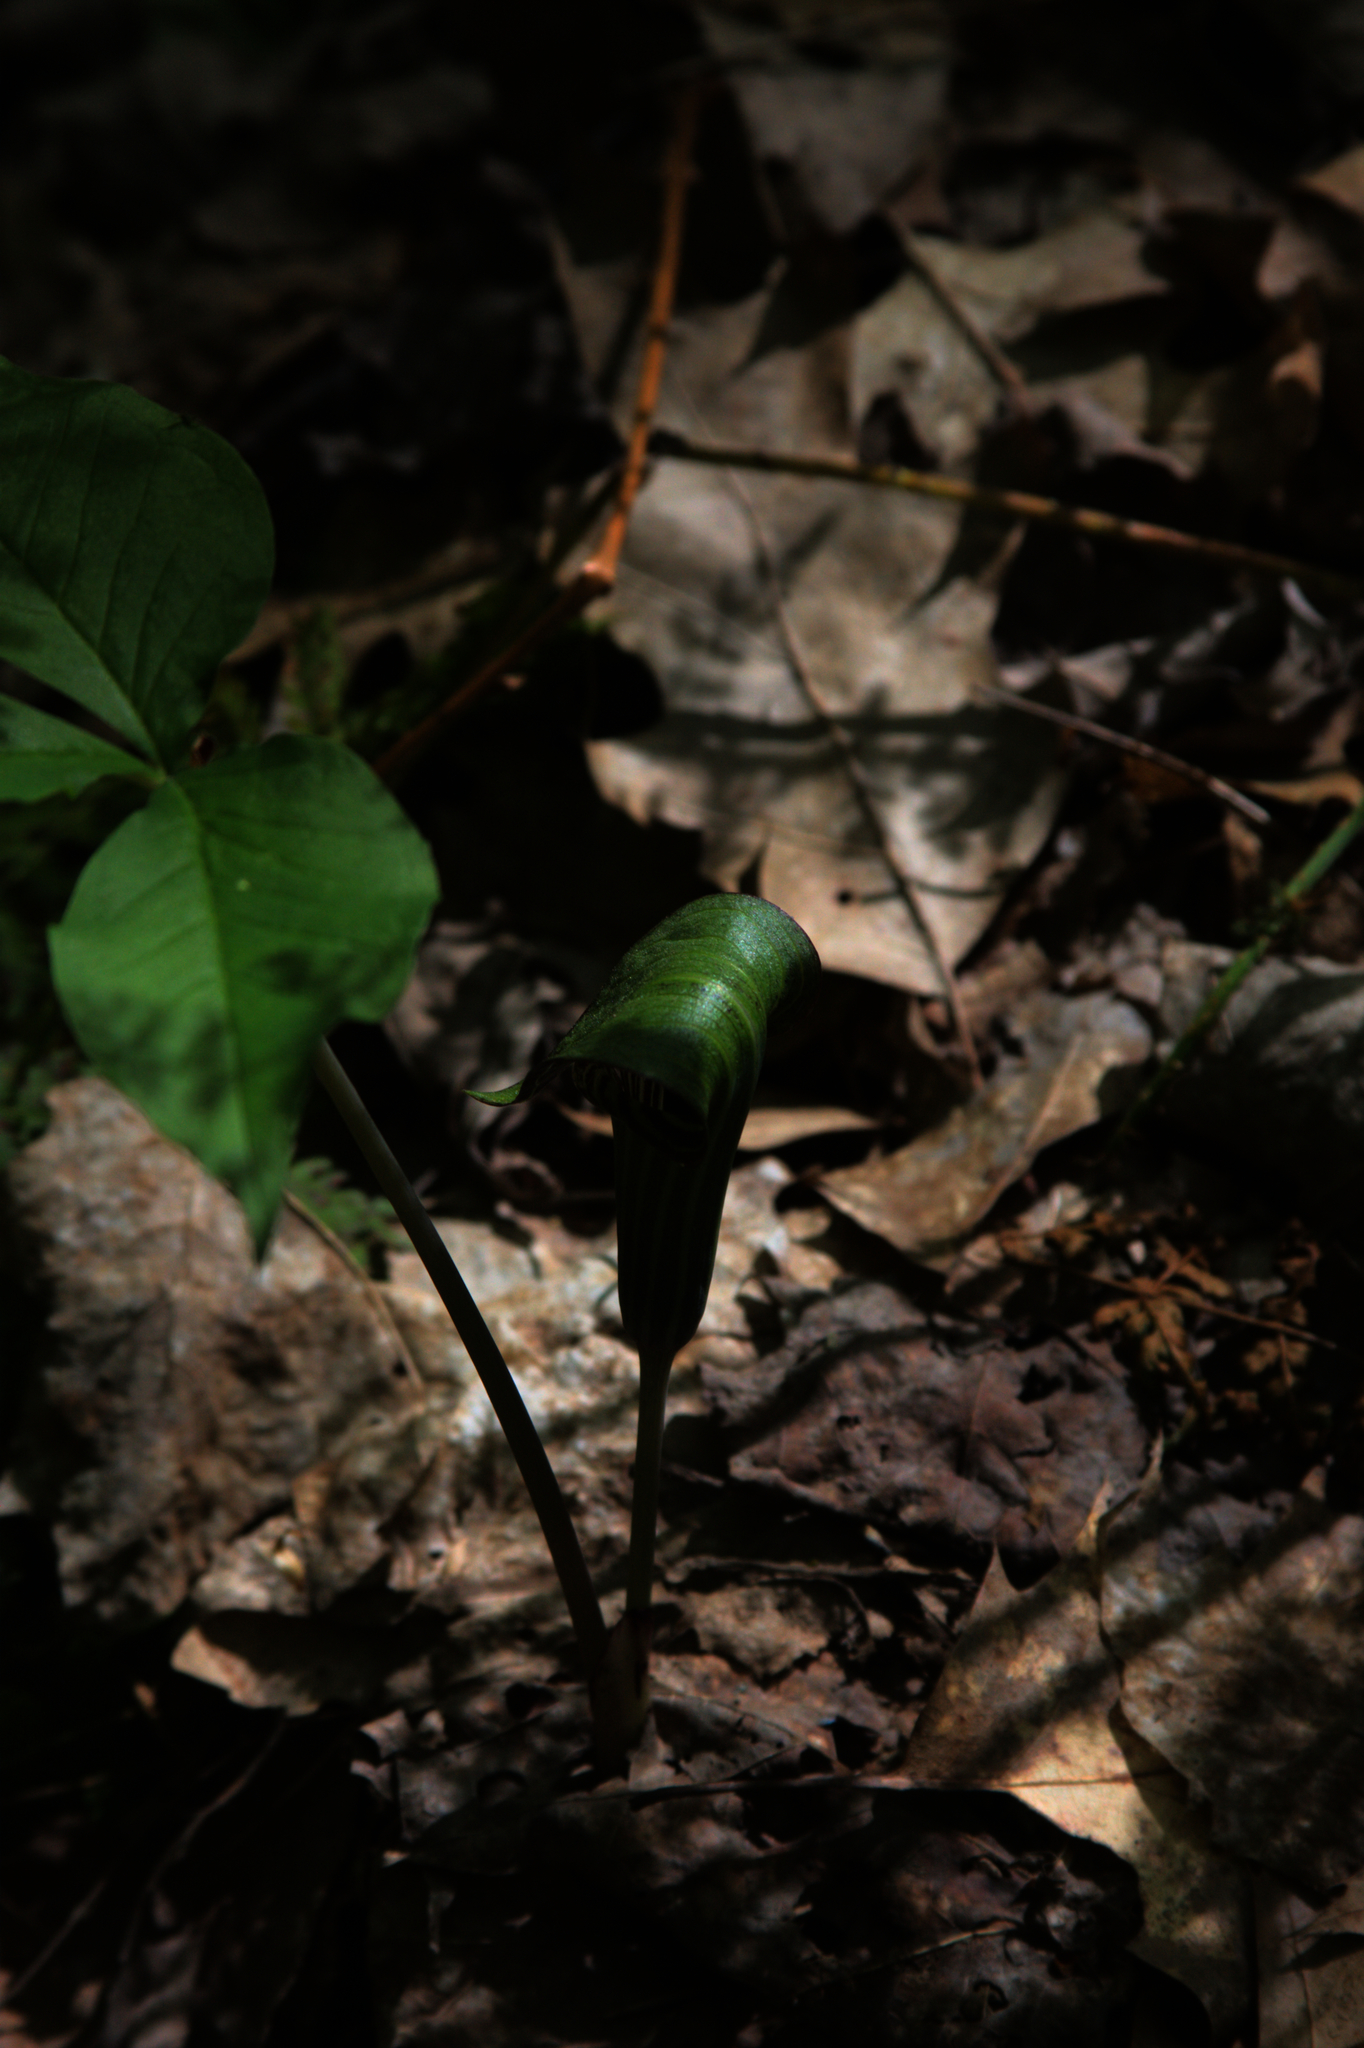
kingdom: Plantae
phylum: Tracheophyta
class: Liliopsida
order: Alismatales
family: Araceae
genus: Arisaema
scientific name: Arisaema triphyllum
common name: Jack-in-the-pulpit
